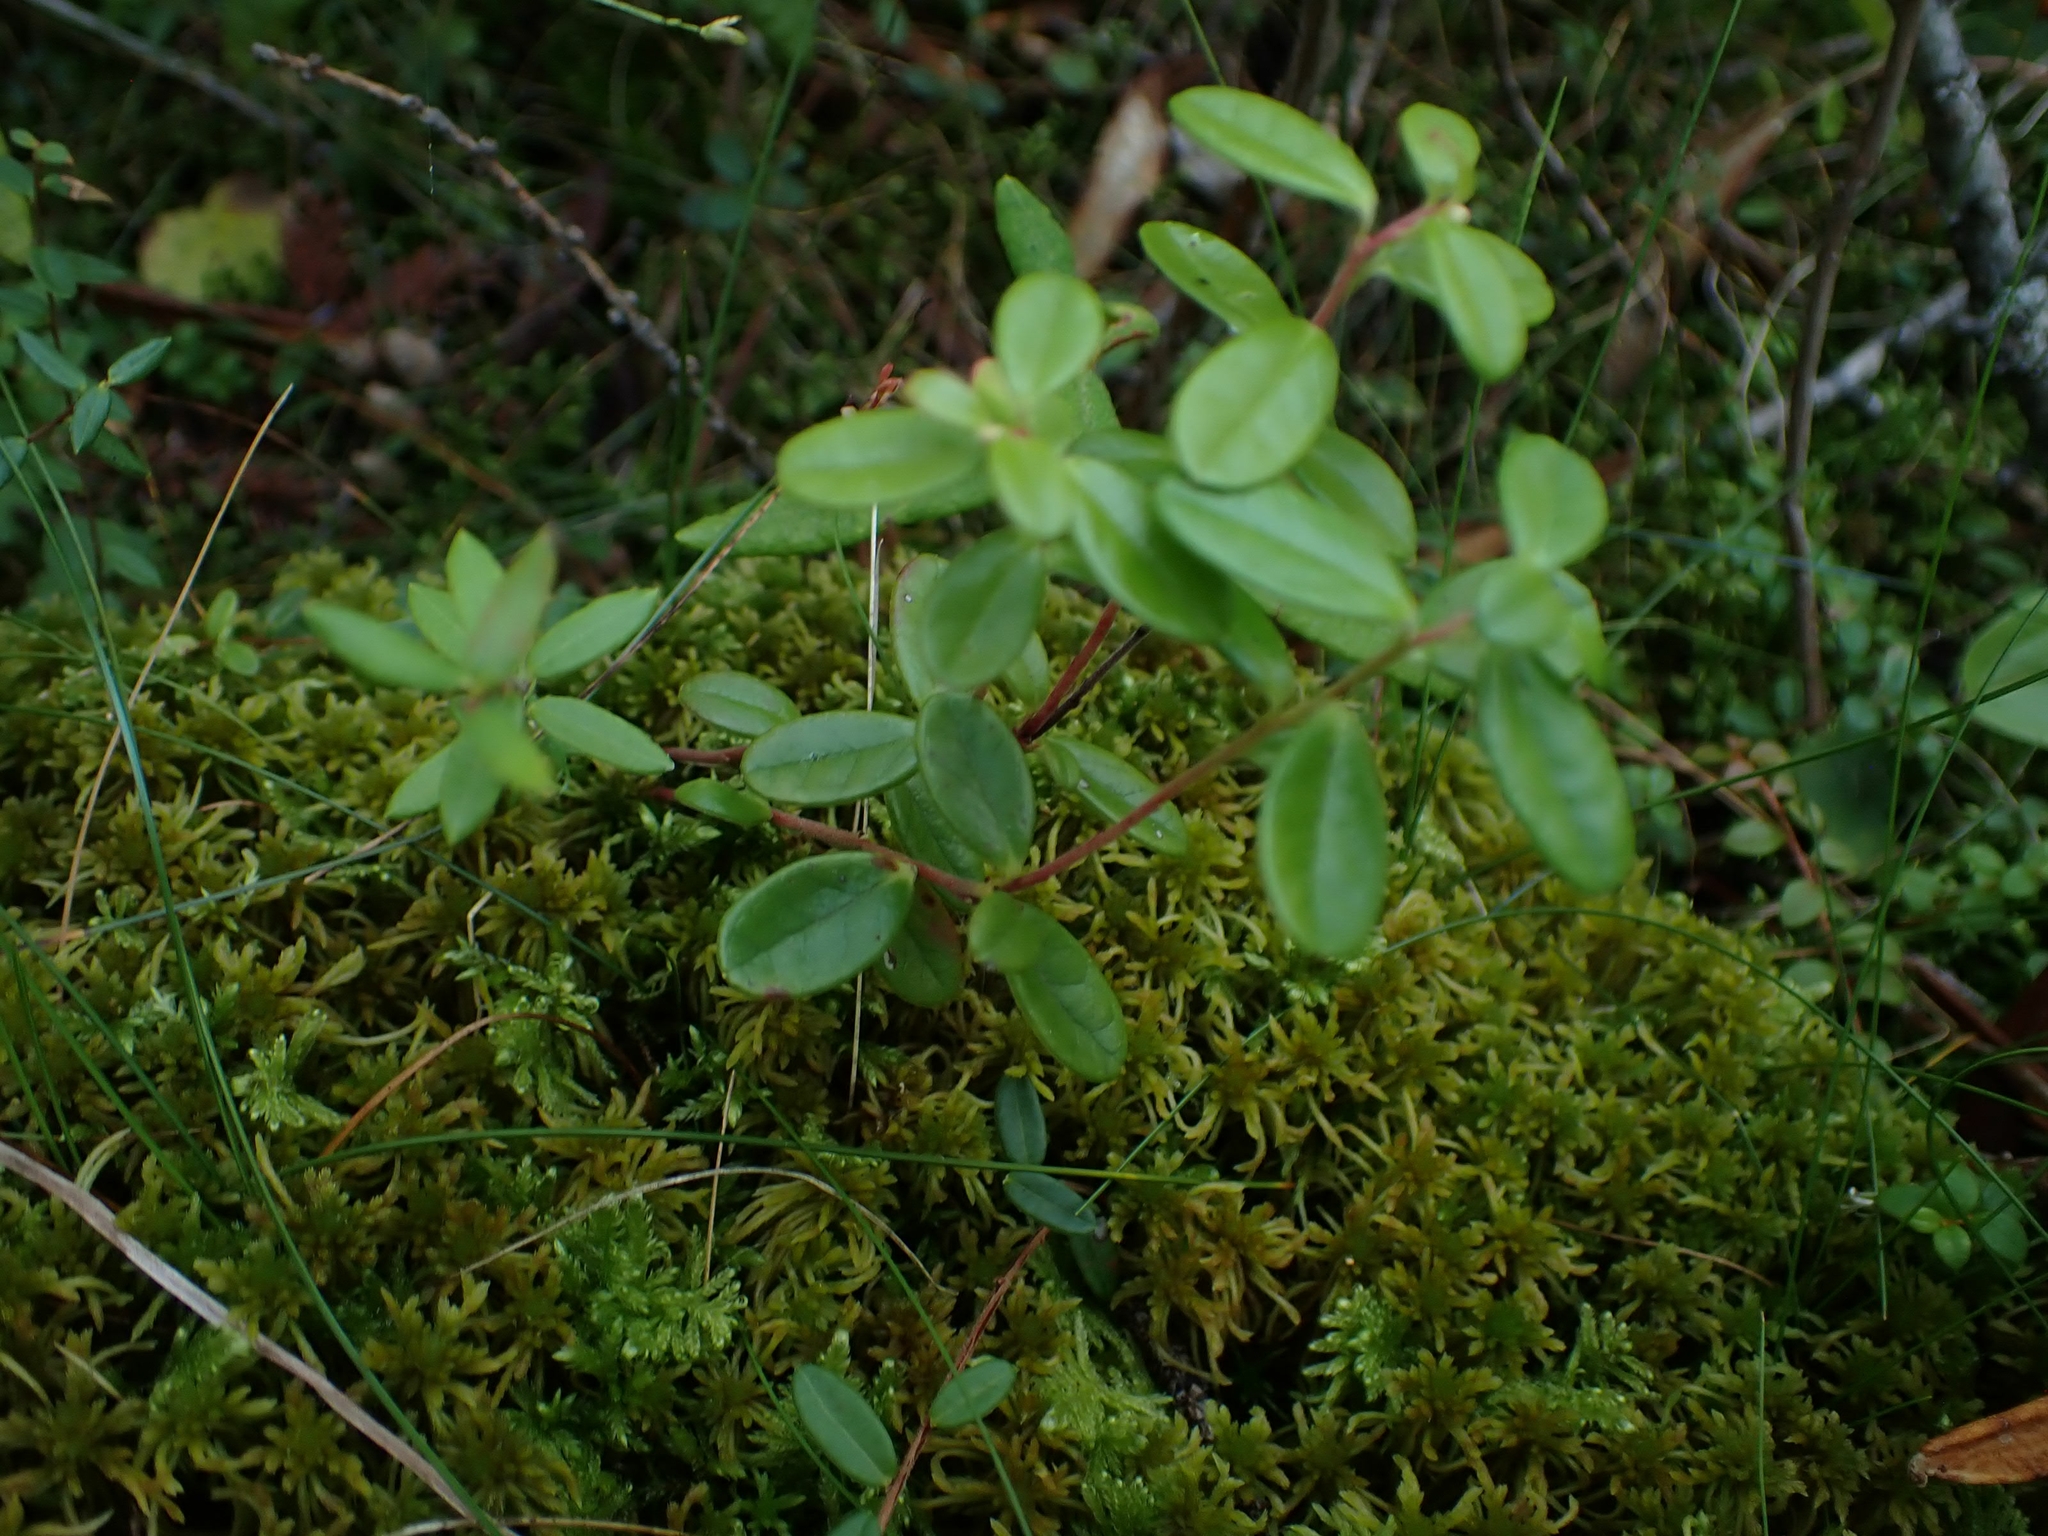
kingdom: Plantae
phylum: Tracheophyta
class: Magnoliopsida
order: Ericales
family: Ericaceae
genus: Vaccinium
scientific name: Vaccinium vitis-idaea
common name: Cowberry
